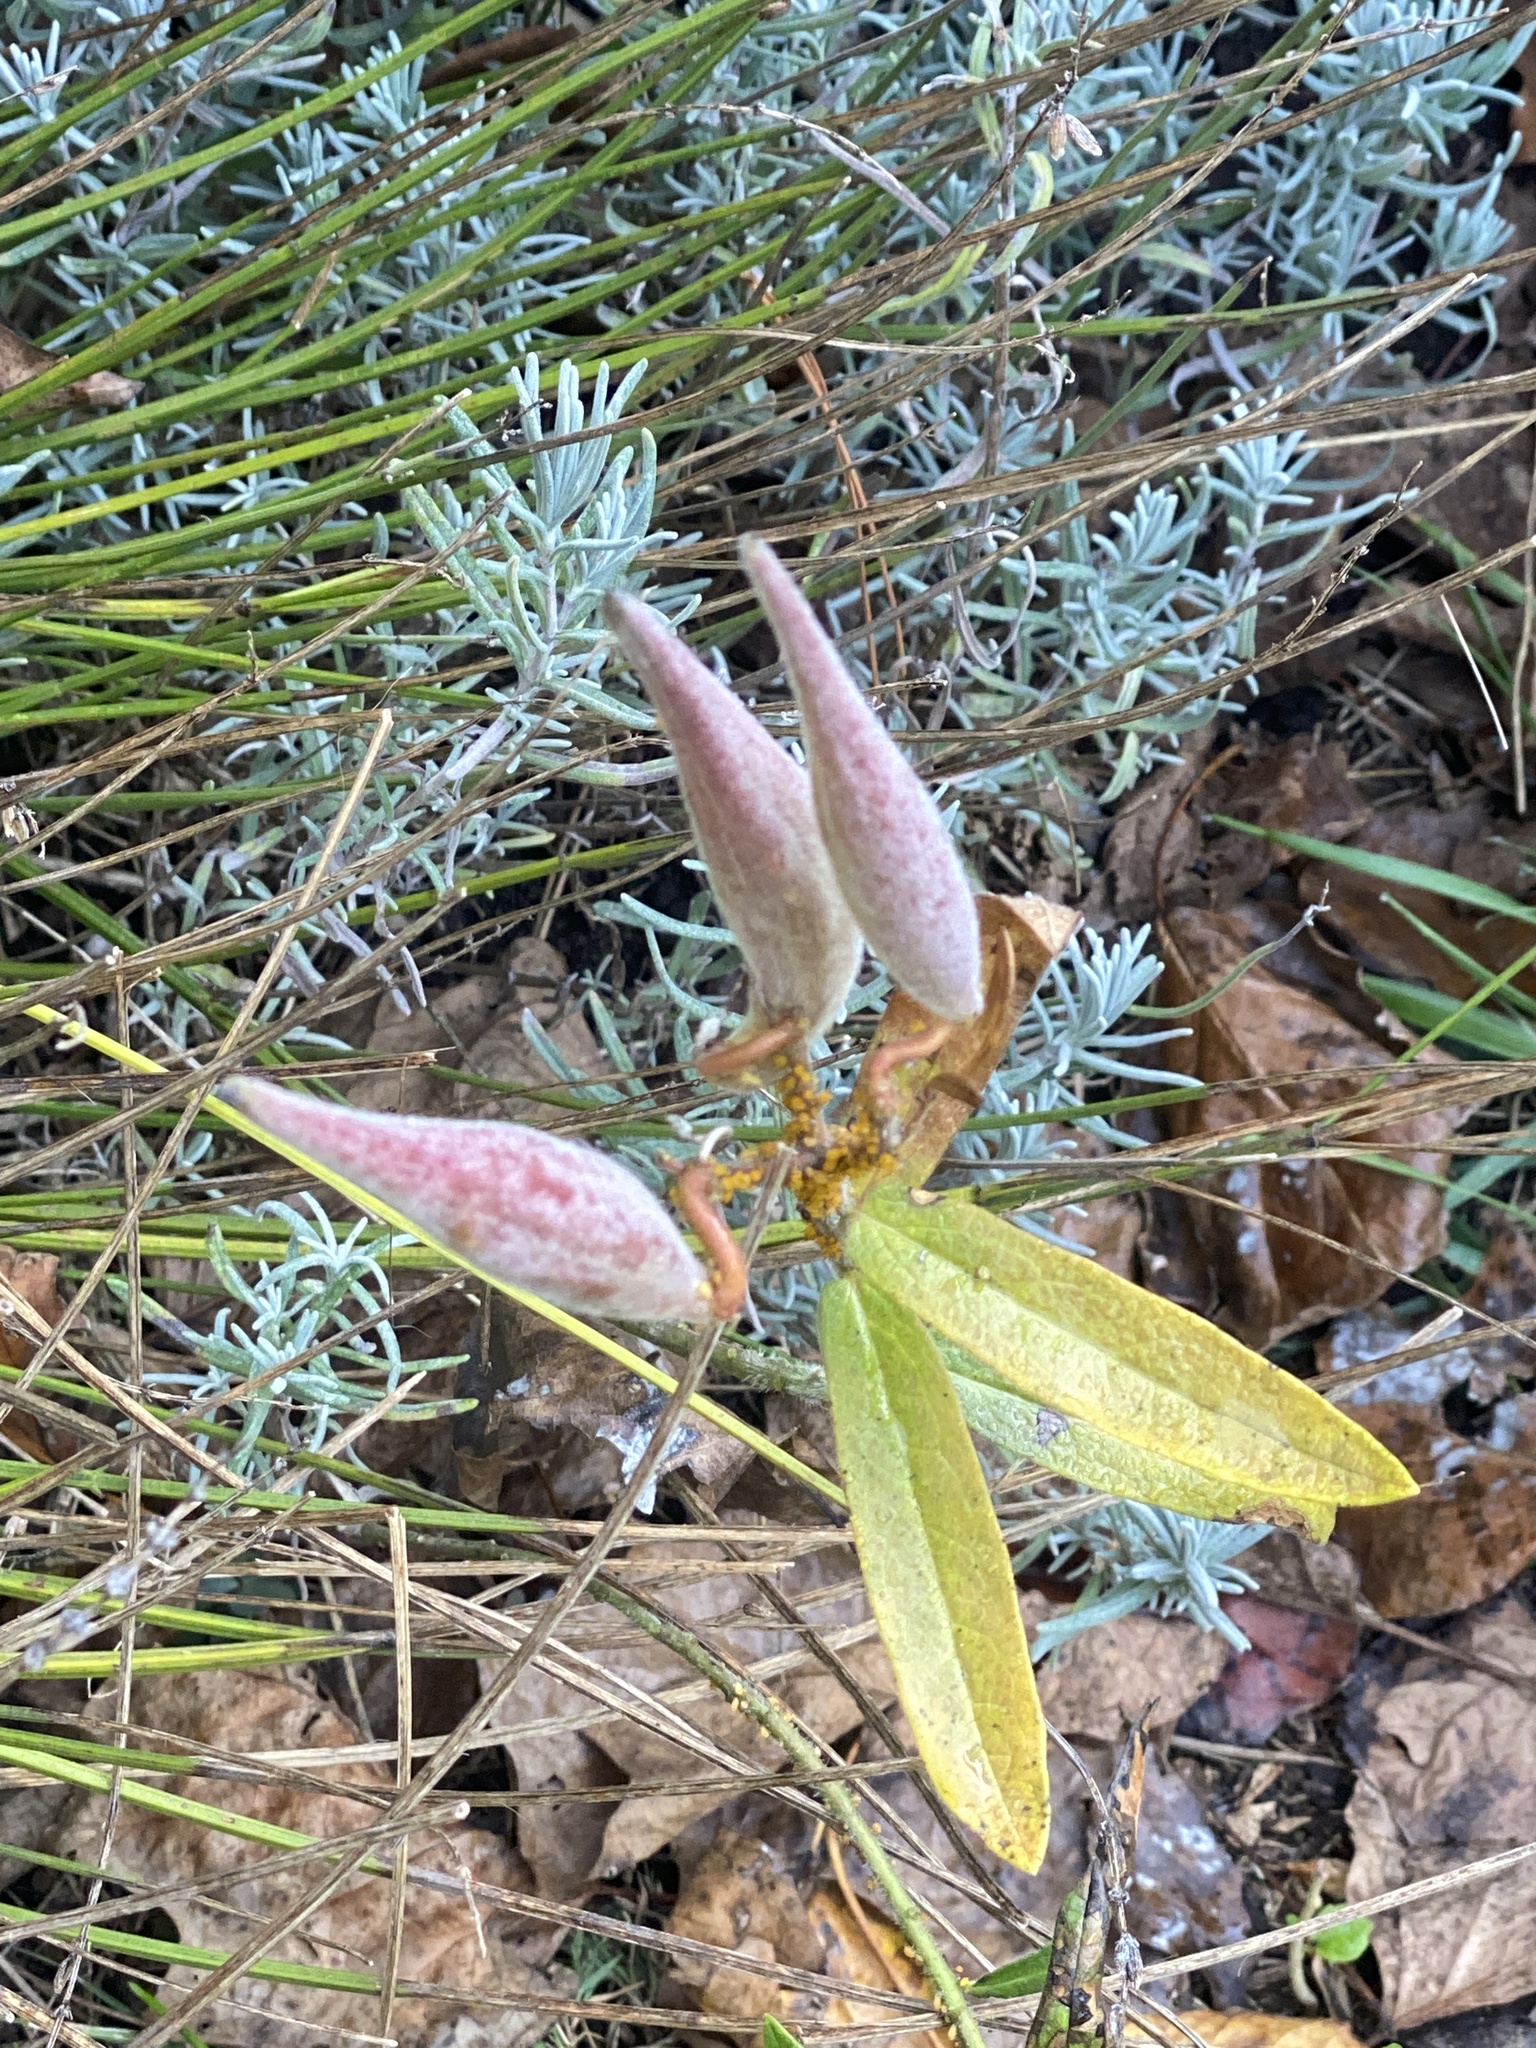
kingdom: Plantae
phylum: Tracheophyta
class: Magnoliopsida
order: Gentianales
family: Apocynaceae
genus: Asclepias
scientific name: Asclepias tuberosa
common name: Butterfly milkweed
